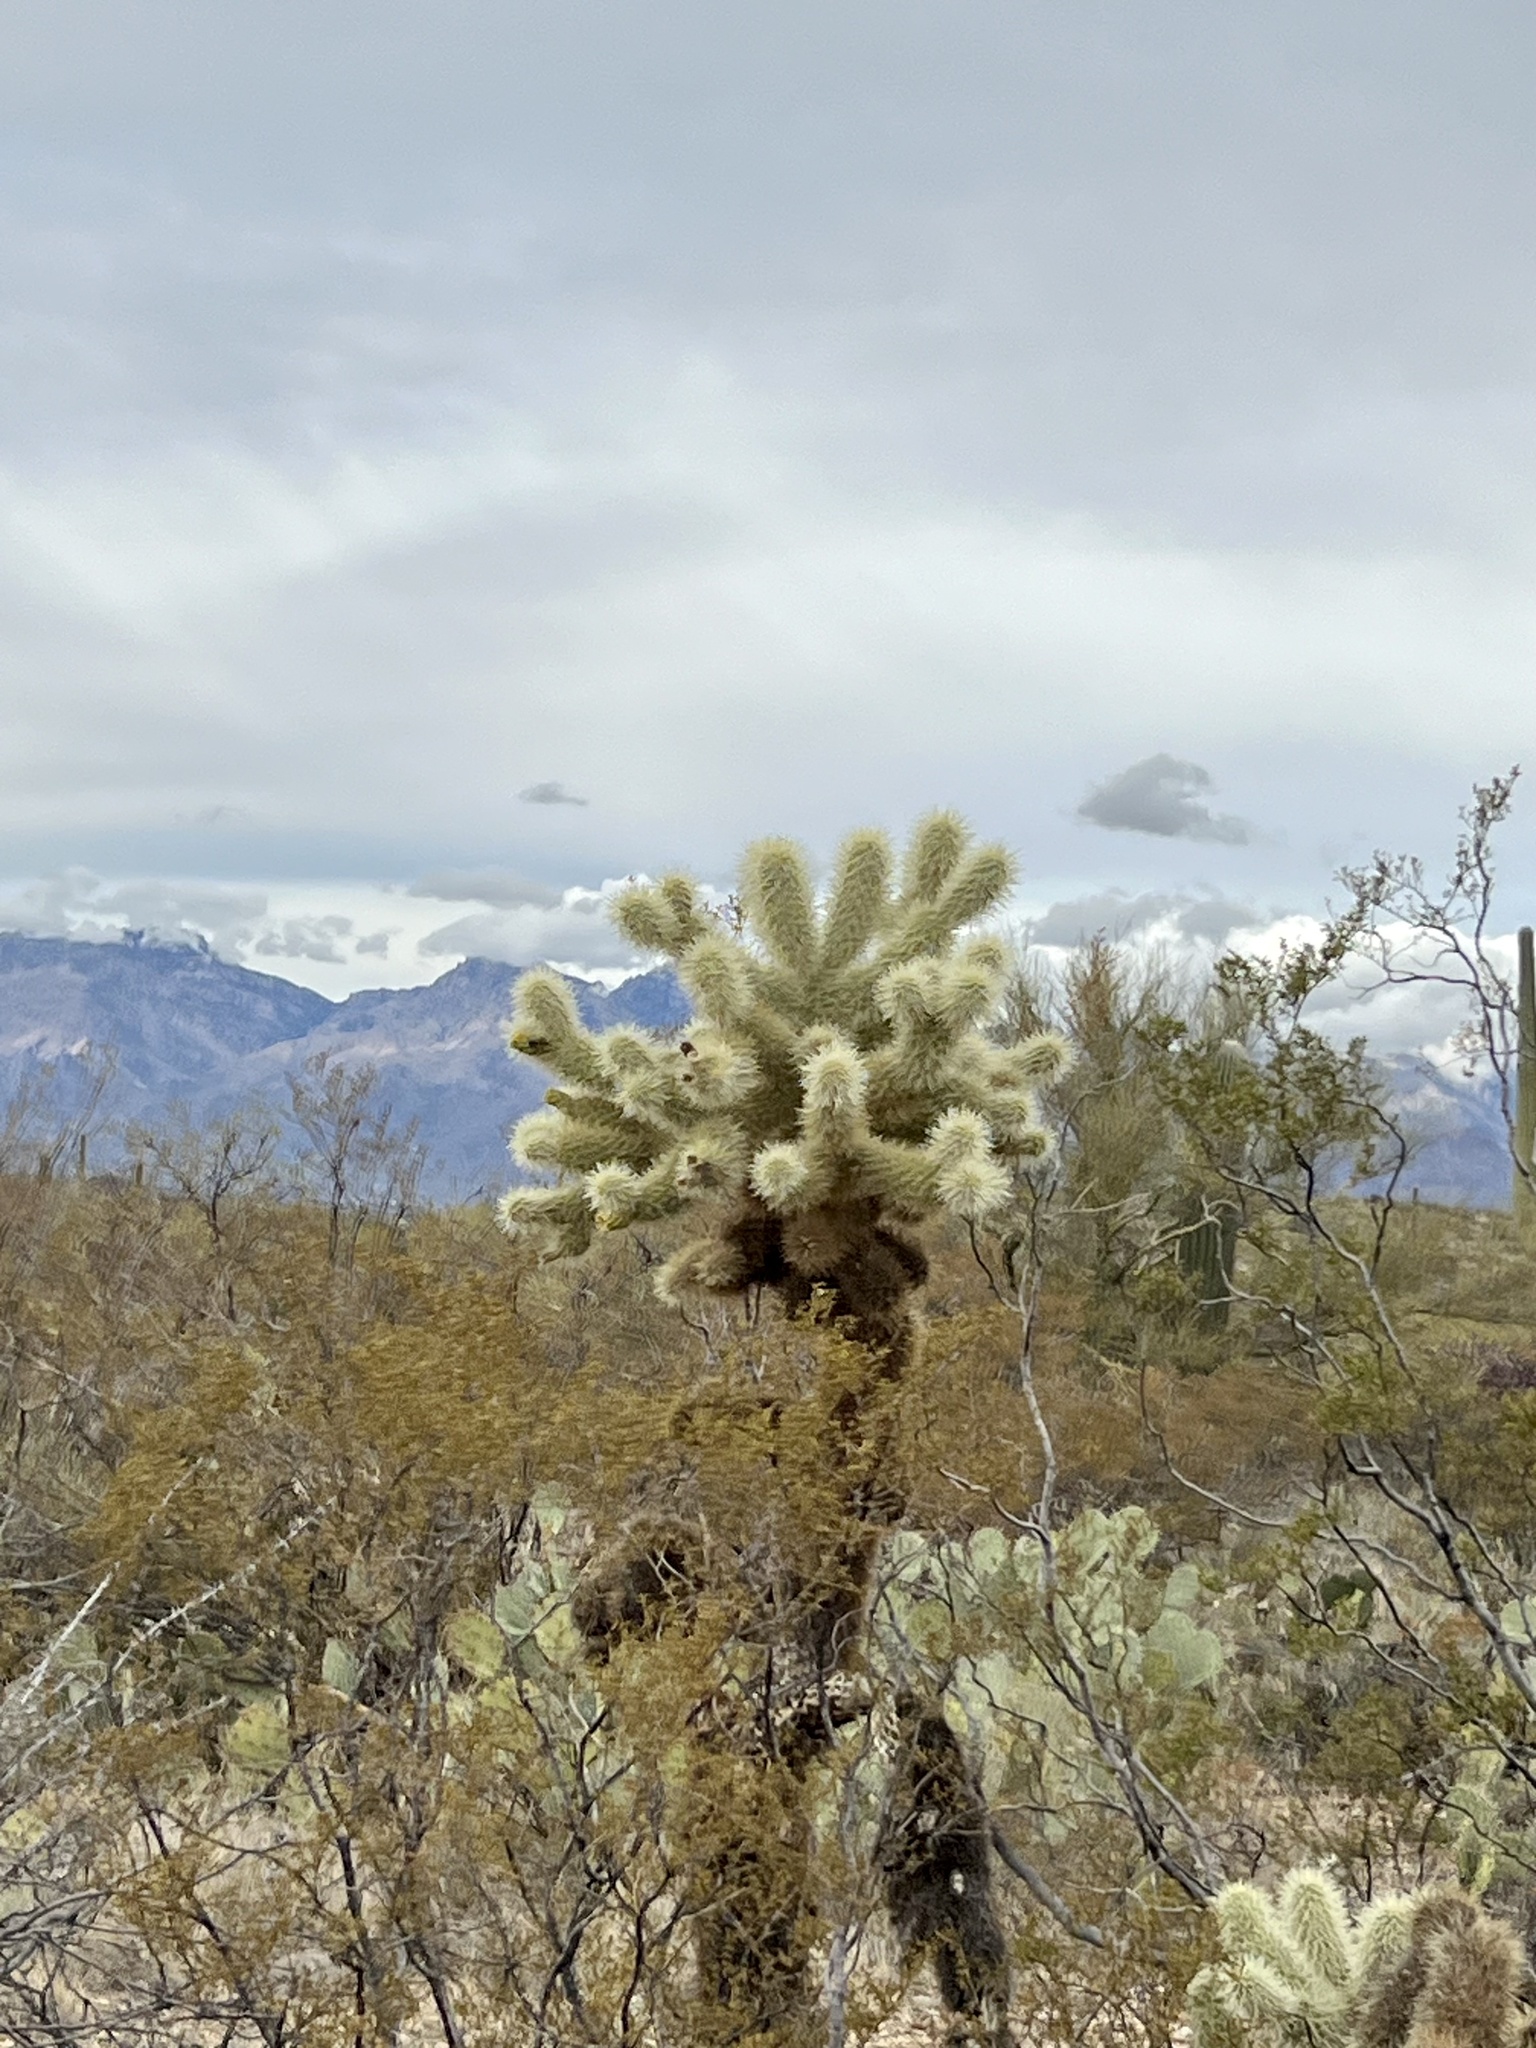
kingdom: Plantae
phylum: Tracheophyta
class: Magnoliopsida
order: Caryophyllales
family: Cactaceae
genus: Cylindropuntia
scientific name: Cylindropuntia fosbergii
